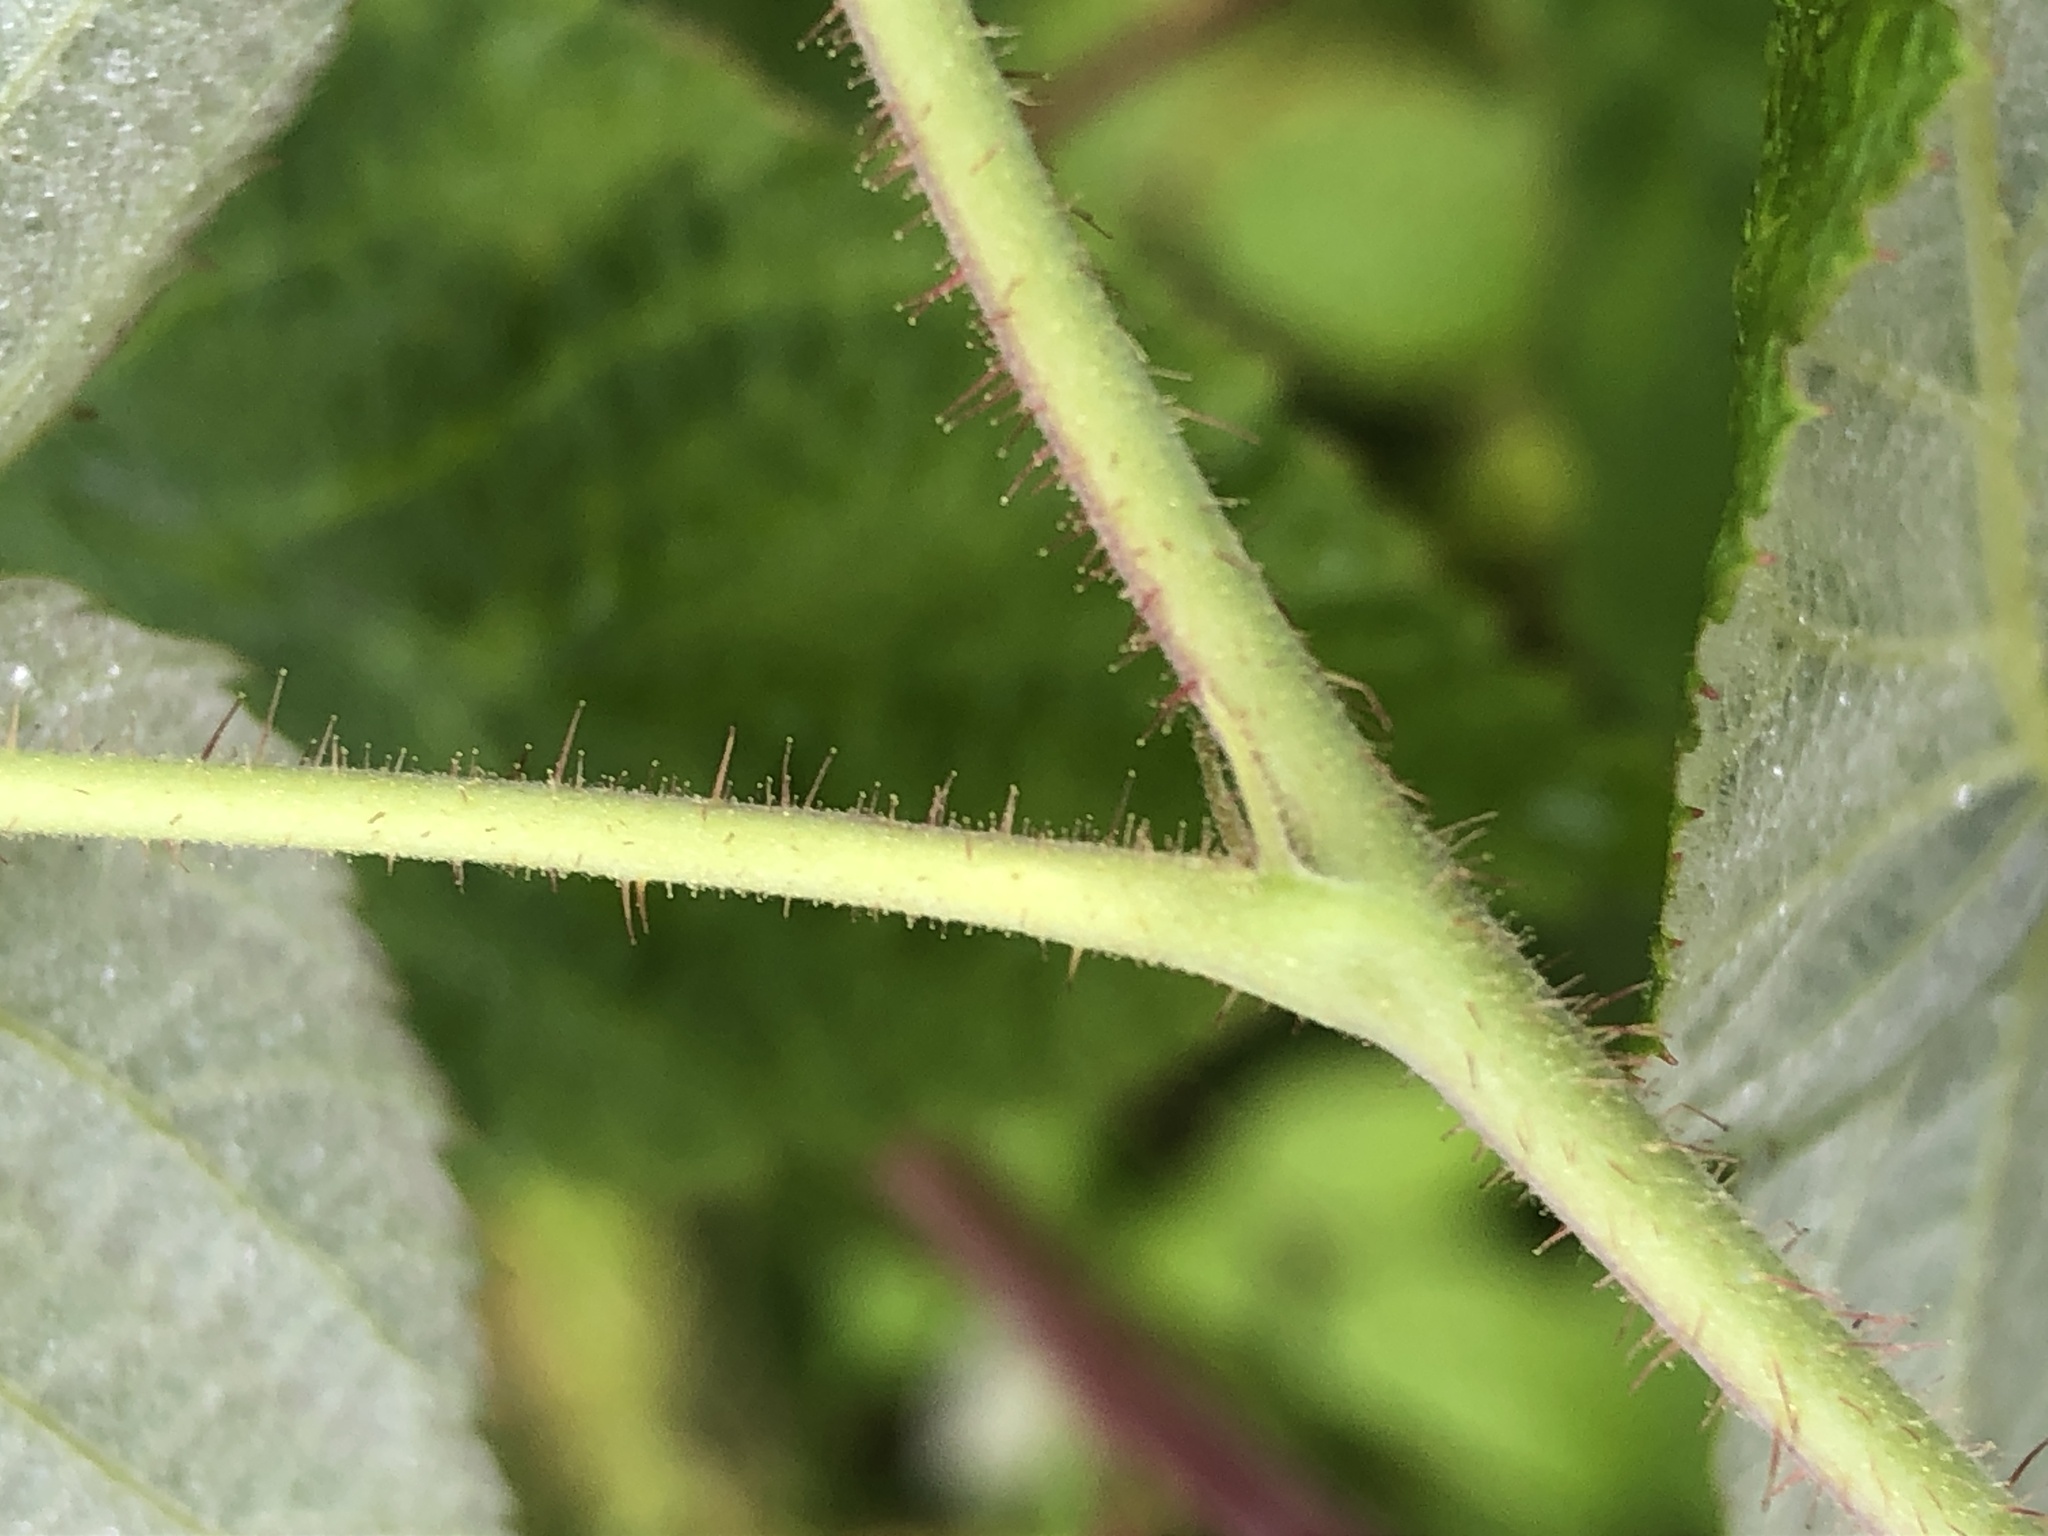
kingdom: Plantae
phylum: Tracheophyta
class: Magnoliopsida
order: Rosales
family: Rosaceae
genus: Rubus
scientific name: Rubus idaeus
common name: Raspberry
